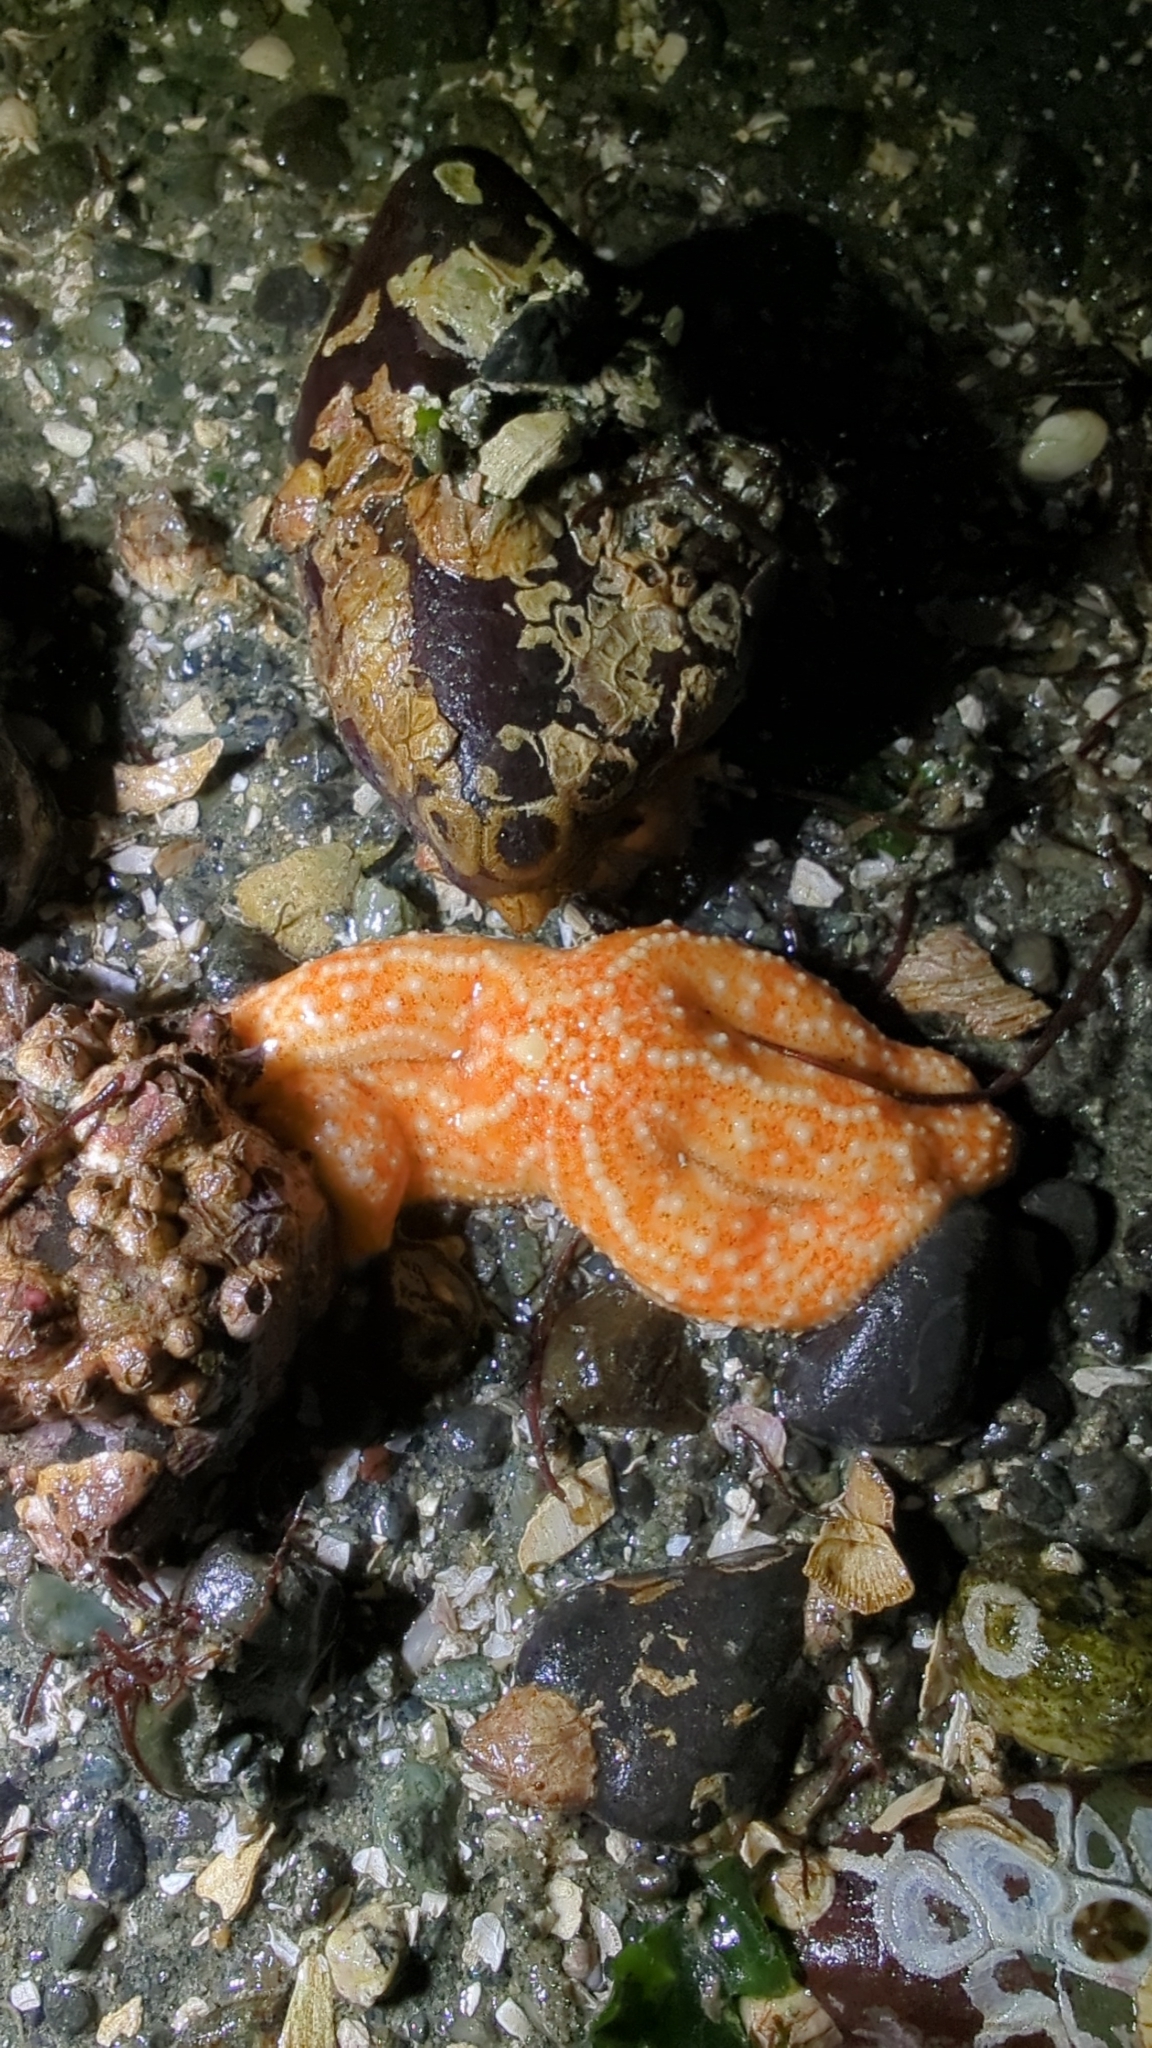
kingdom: Animalia
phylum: Echinodermata
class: Asteroidea
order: Forcipulatida
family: Asteriidae
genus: Evasterias
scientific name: Evasterias troschelii
